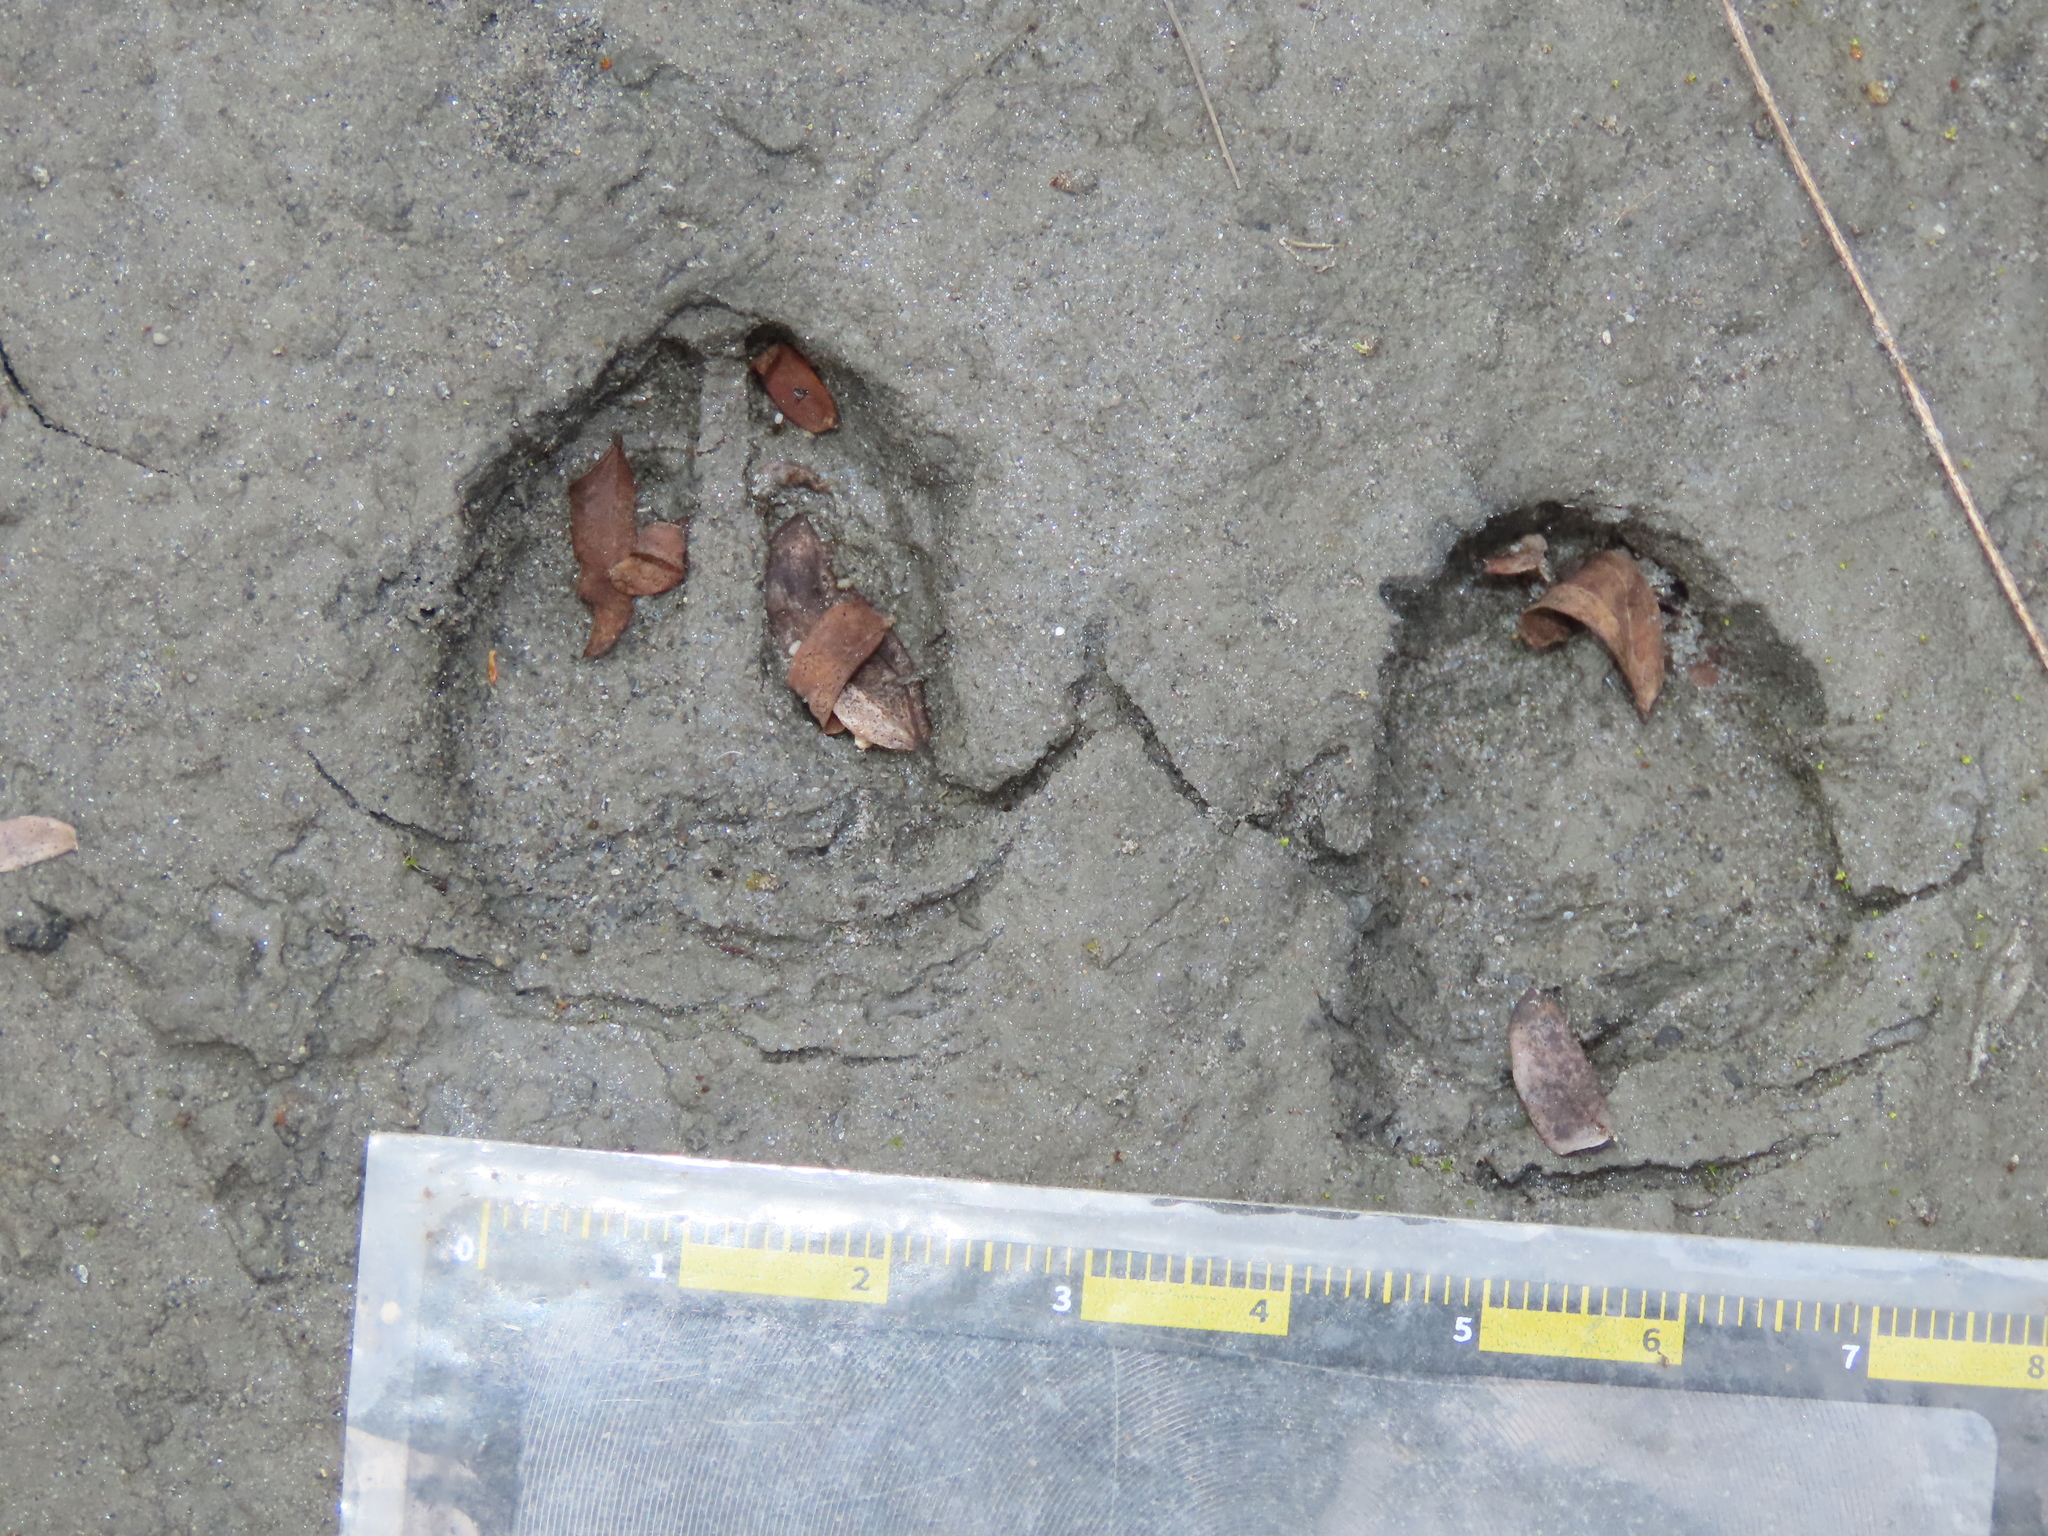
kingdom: Animalia
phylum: Chordata
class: Mammalia
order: Artiodactyla
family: Cervidae
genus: Muntiacus
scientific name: Muntiacus reevesi
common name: Reeves' muntjac
